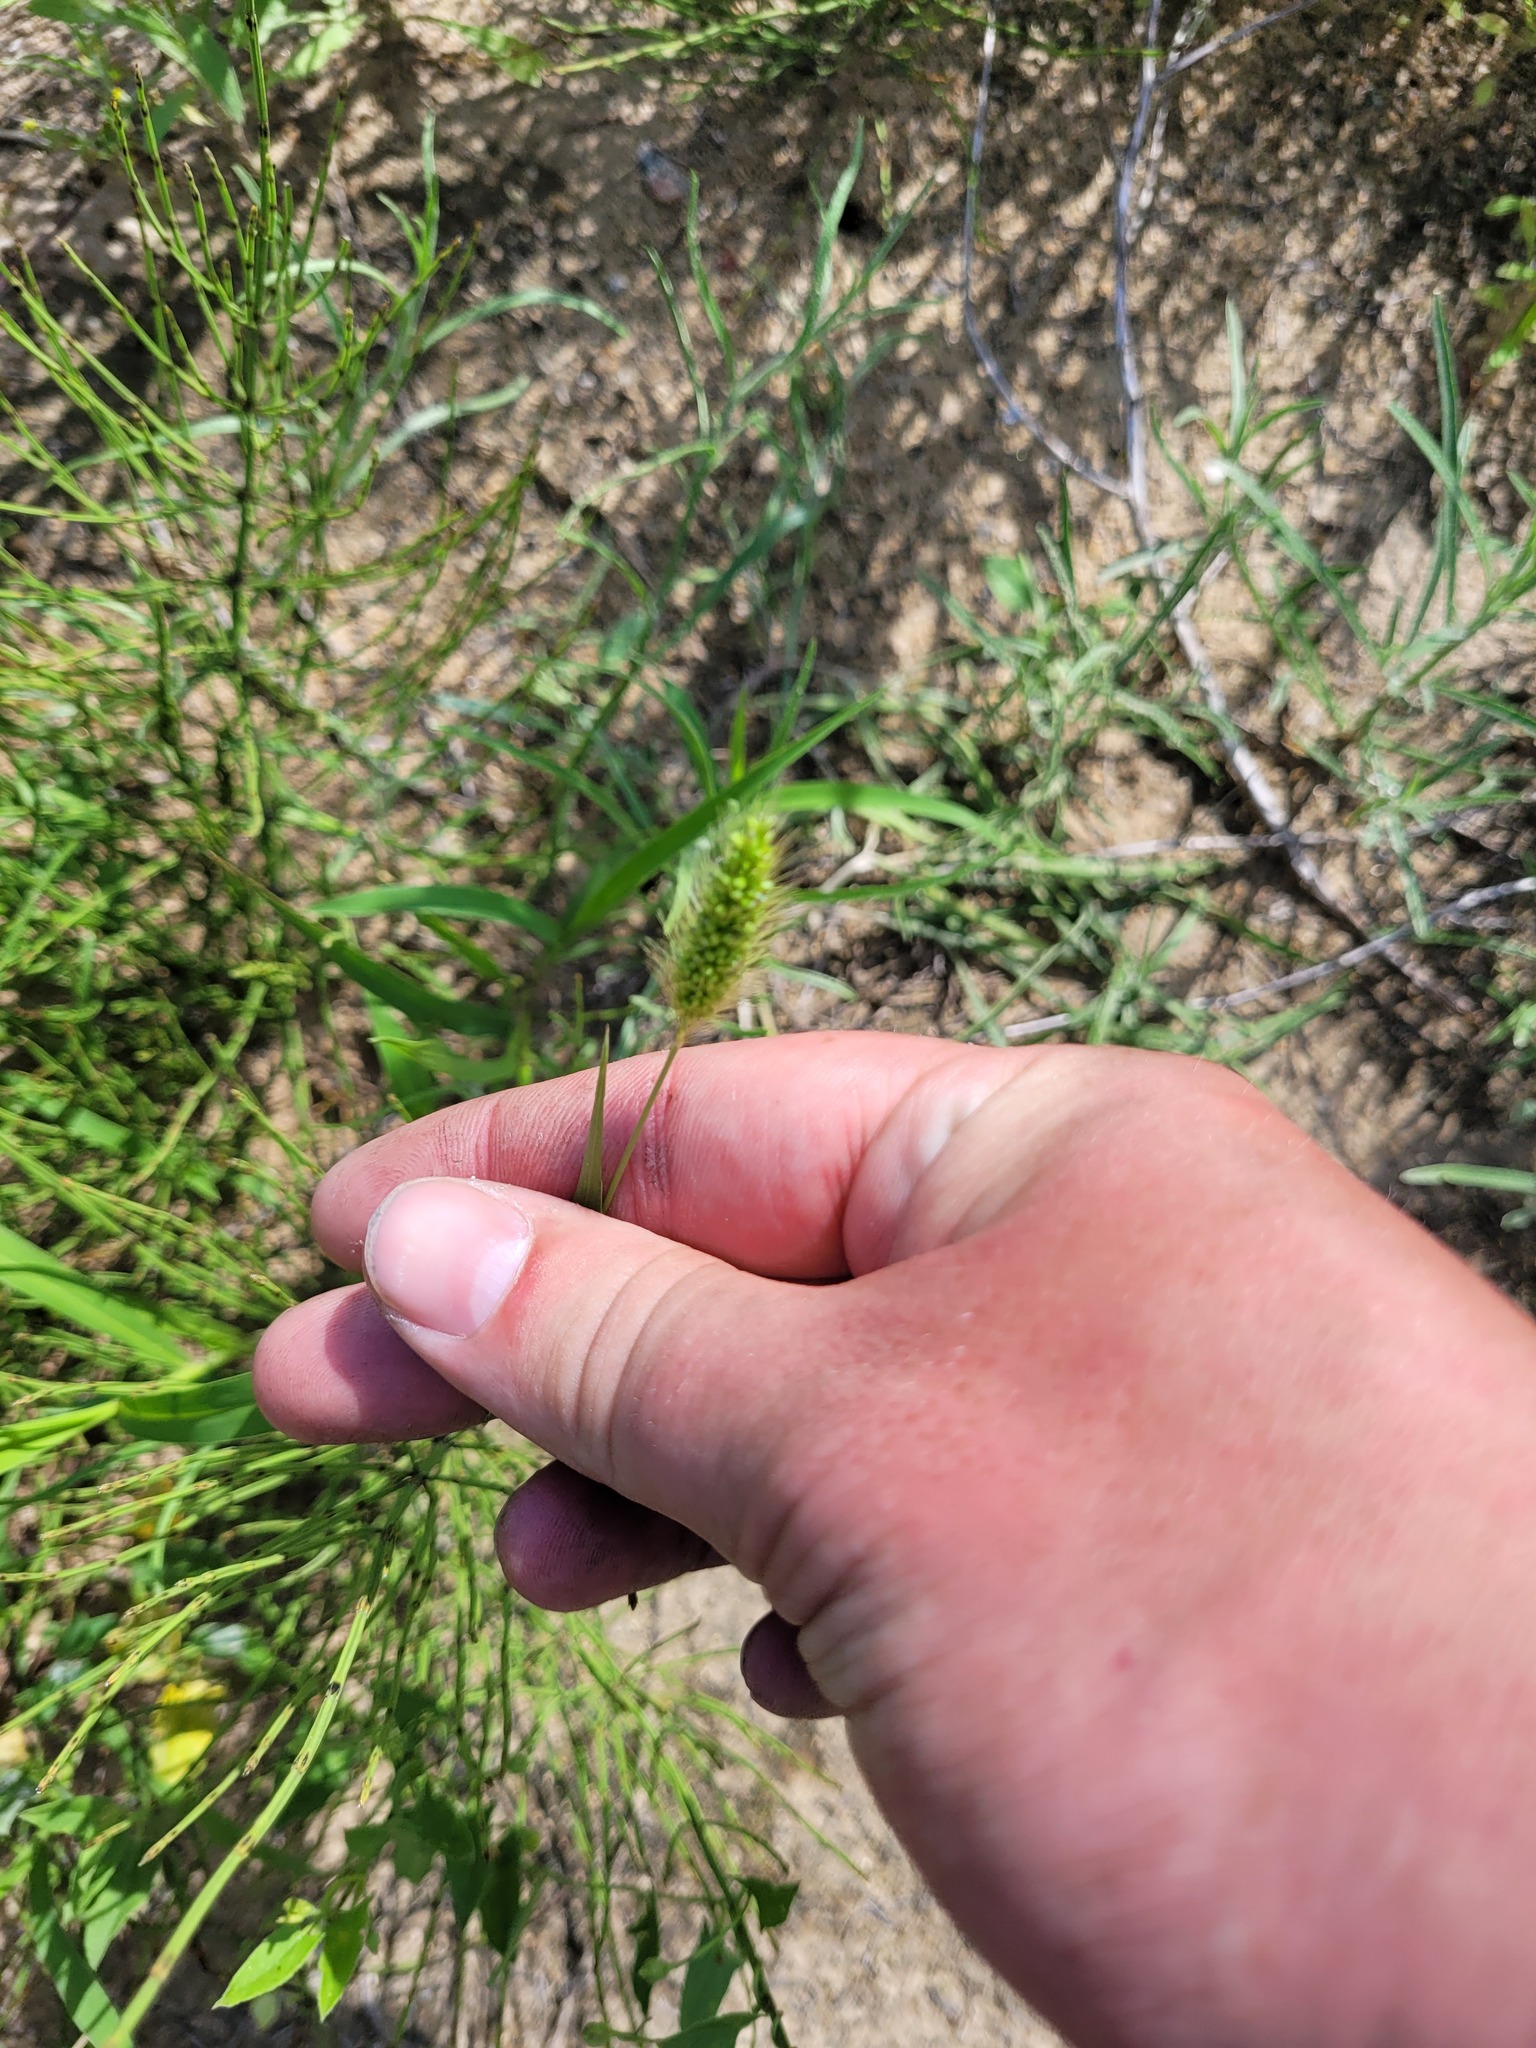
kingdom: Plantae
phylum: Tracheophyta
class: Liliopsida
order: Poales
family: Poaceae
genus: Setaria
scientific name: Setaria viridis
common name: Green bristlegrass
